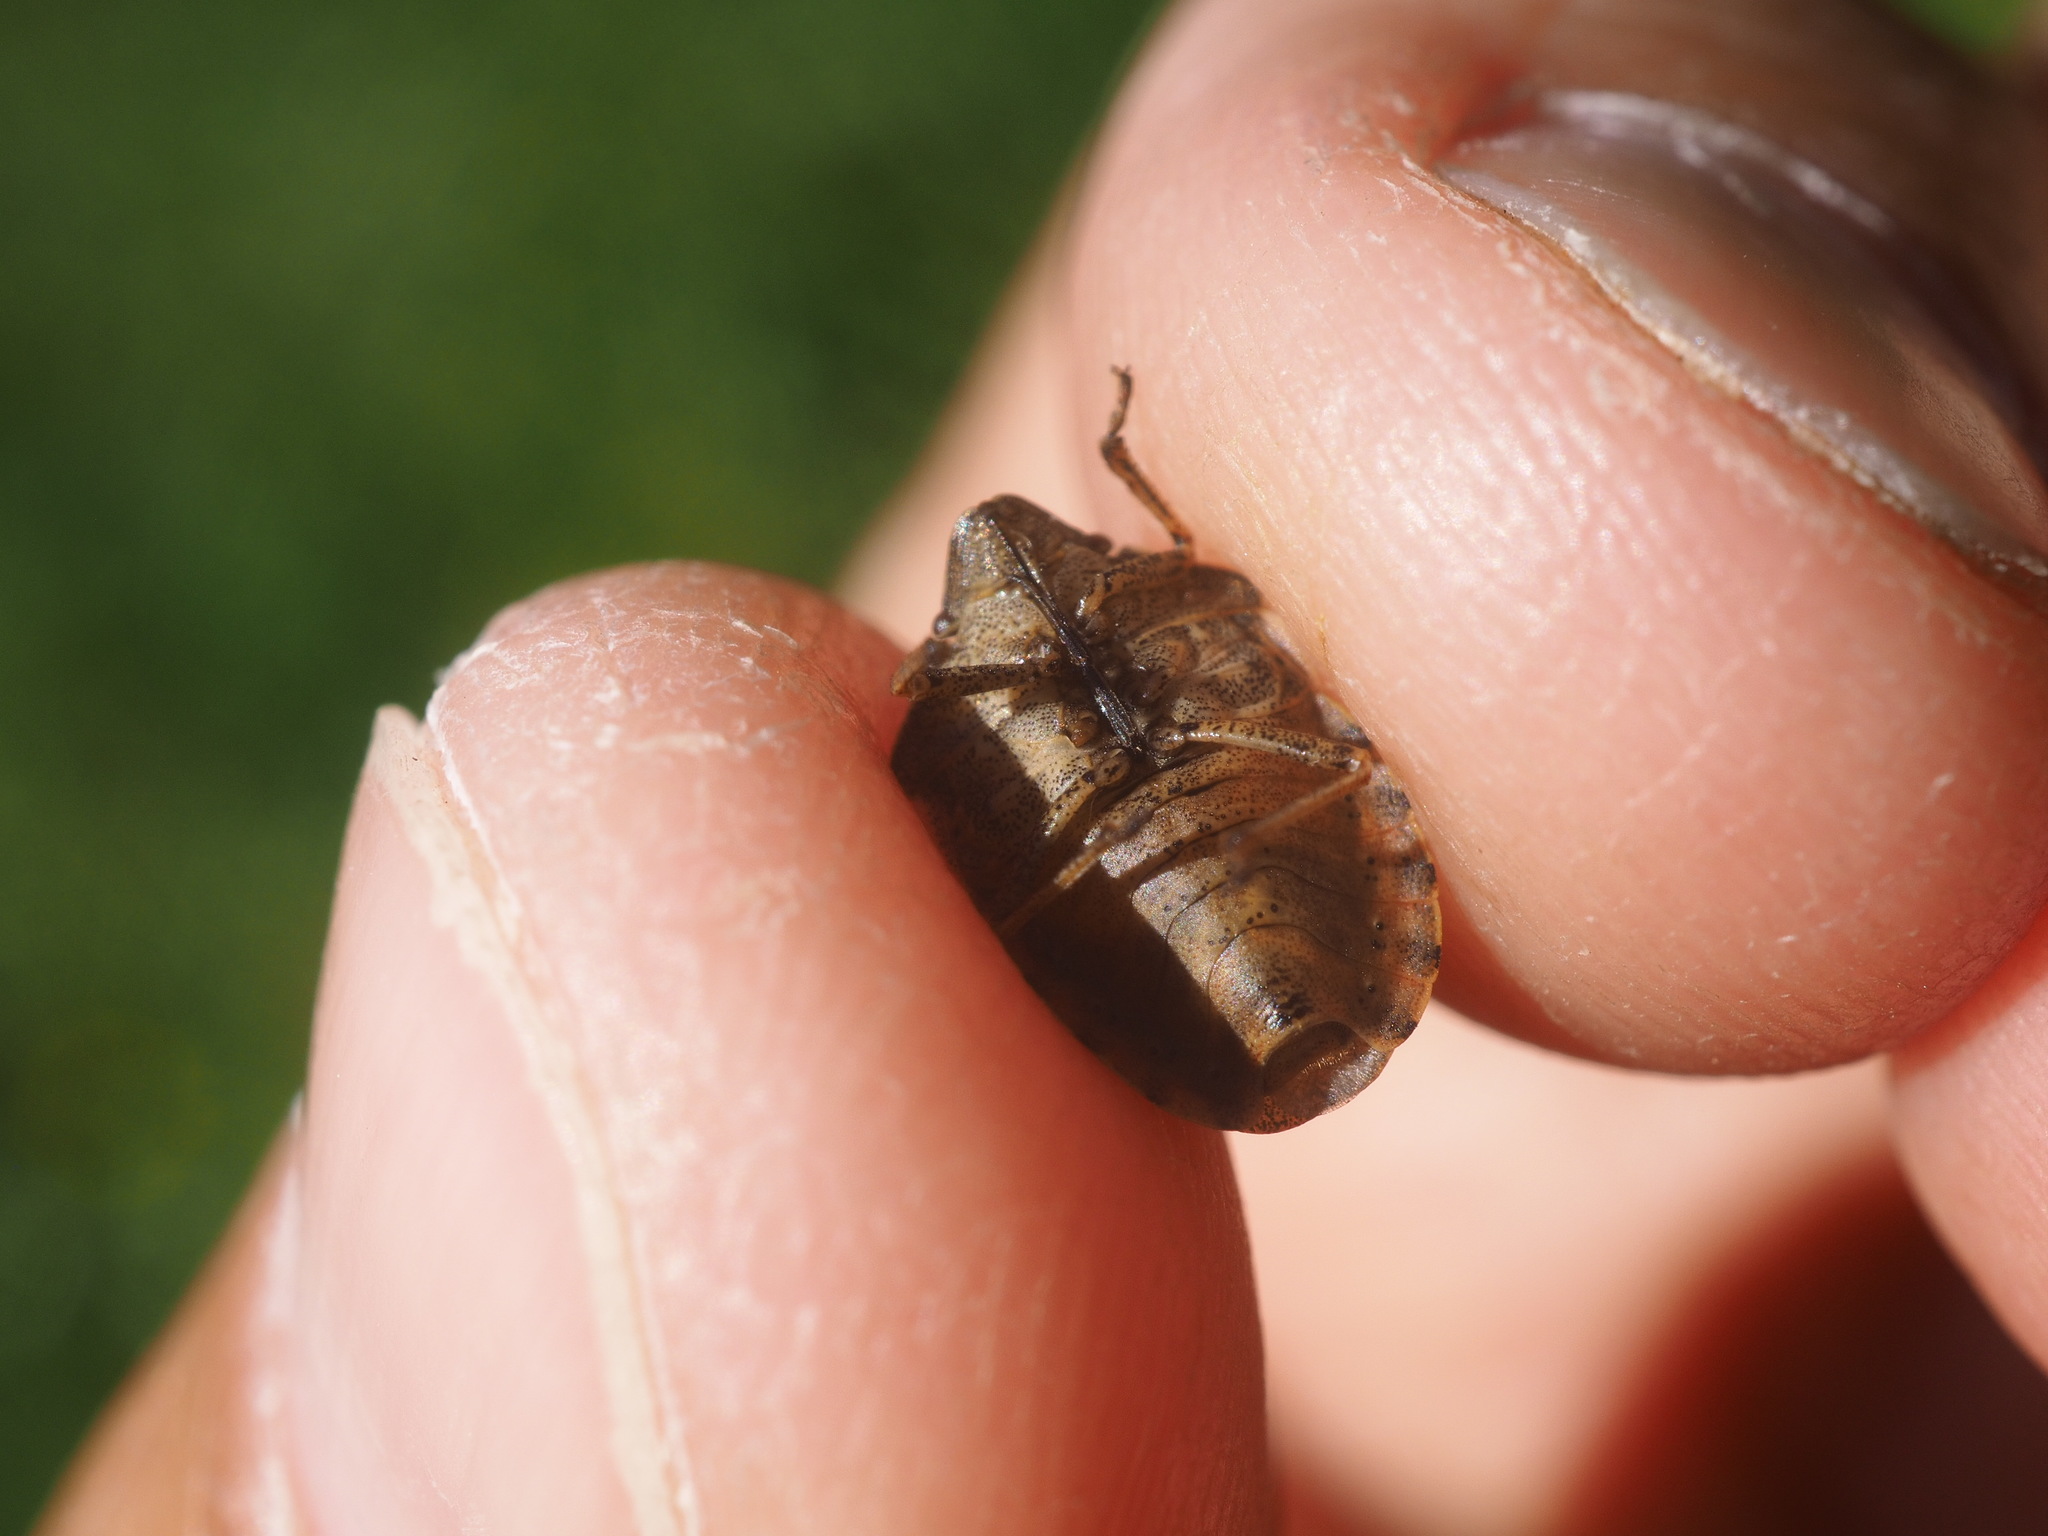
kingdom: Animalia
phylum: Arthropoda
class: Insecta
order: Hemiptera
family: Scutelleridae
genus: Eurygaster
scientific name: Eurygaster testudinaria
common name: Tortoise bug
